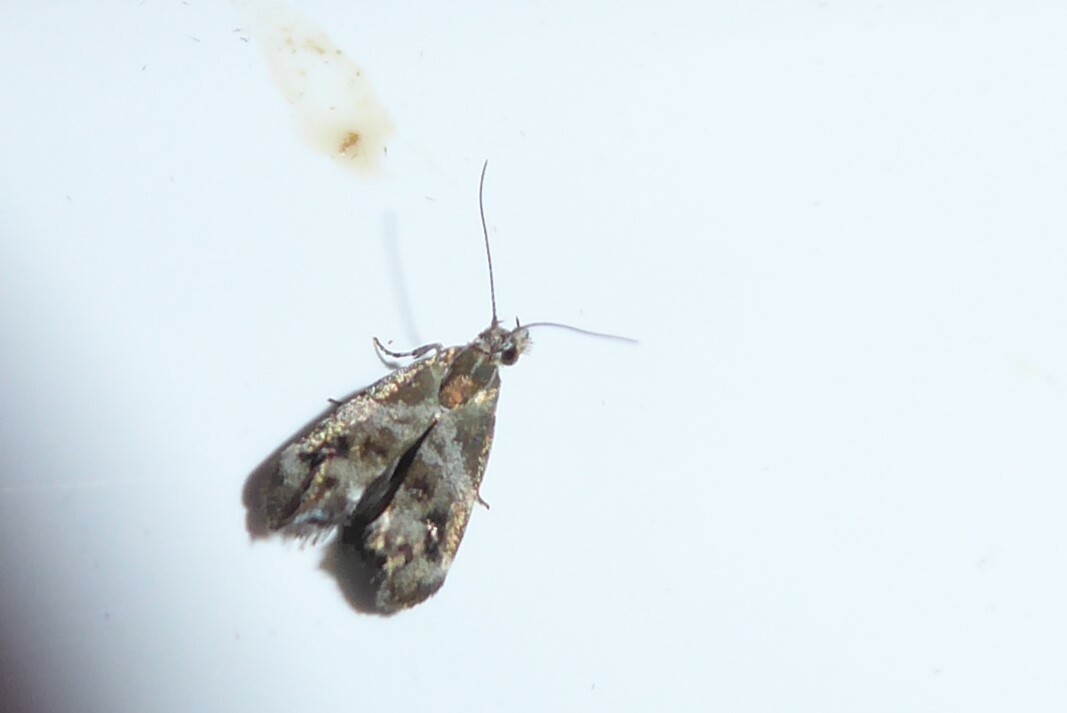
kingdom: Animalia
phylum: Arthropoda
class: Insecta
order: Lepidoptera
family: Choreutidae
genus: Tebenna
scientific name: Tebenna micalis
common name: Vagrant twitcher
